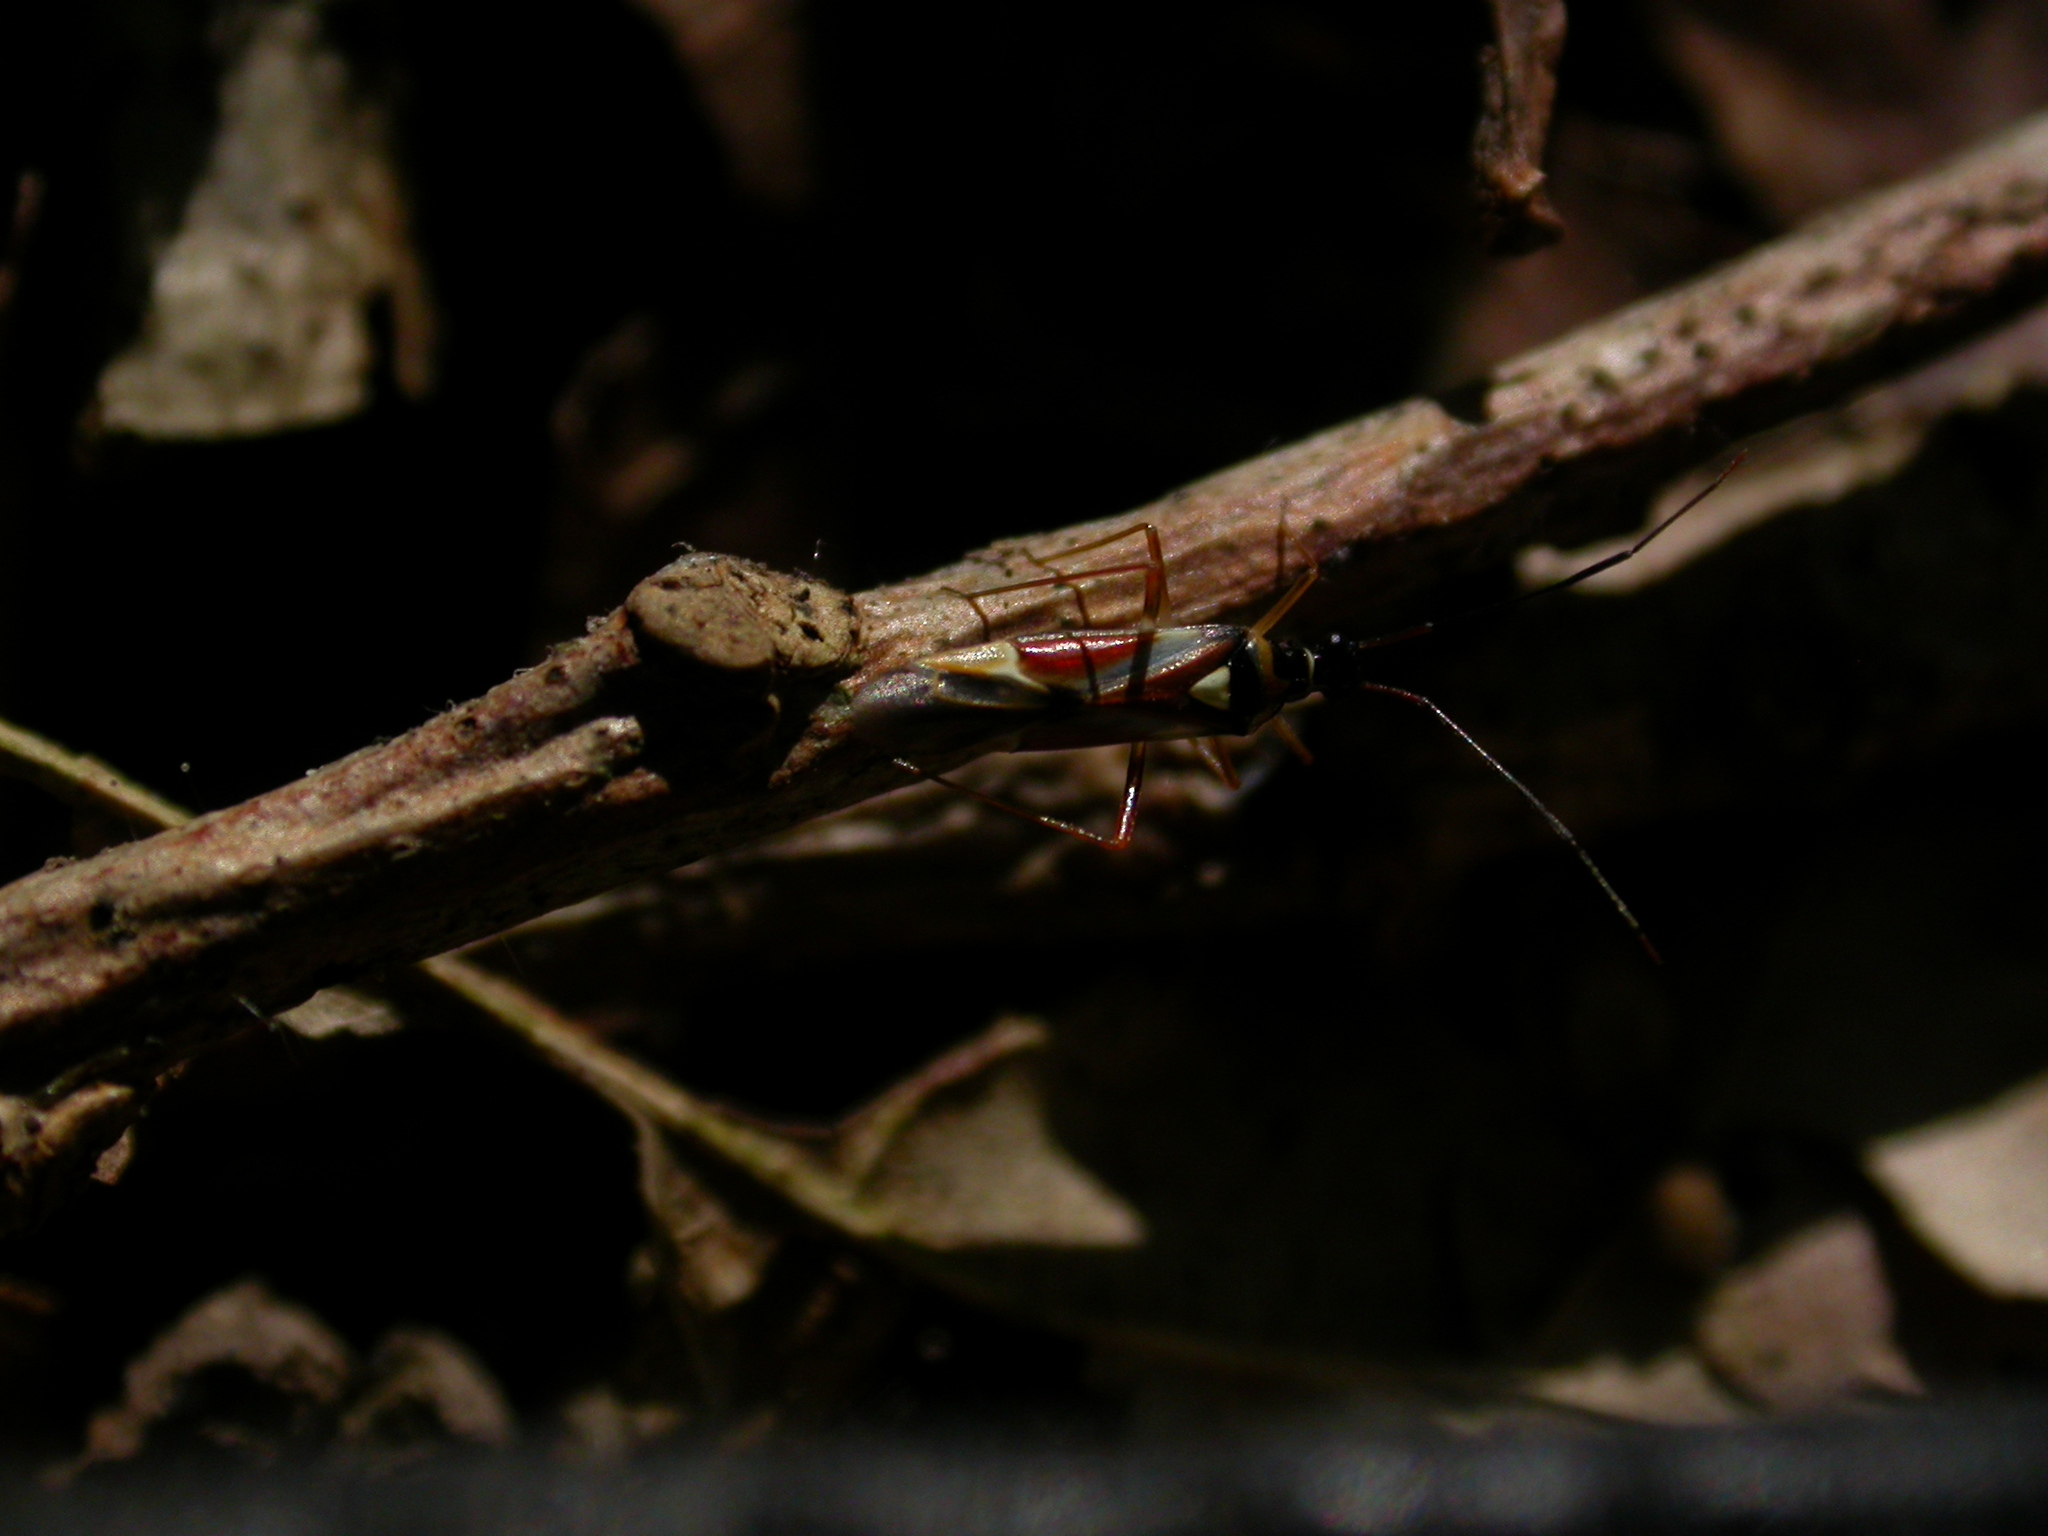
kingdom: Animalia
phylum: Arthropoda
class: Insecta
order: Hemiptera
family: Miridae
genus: Cyllecoris
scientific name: Cyllecoris histrionius
